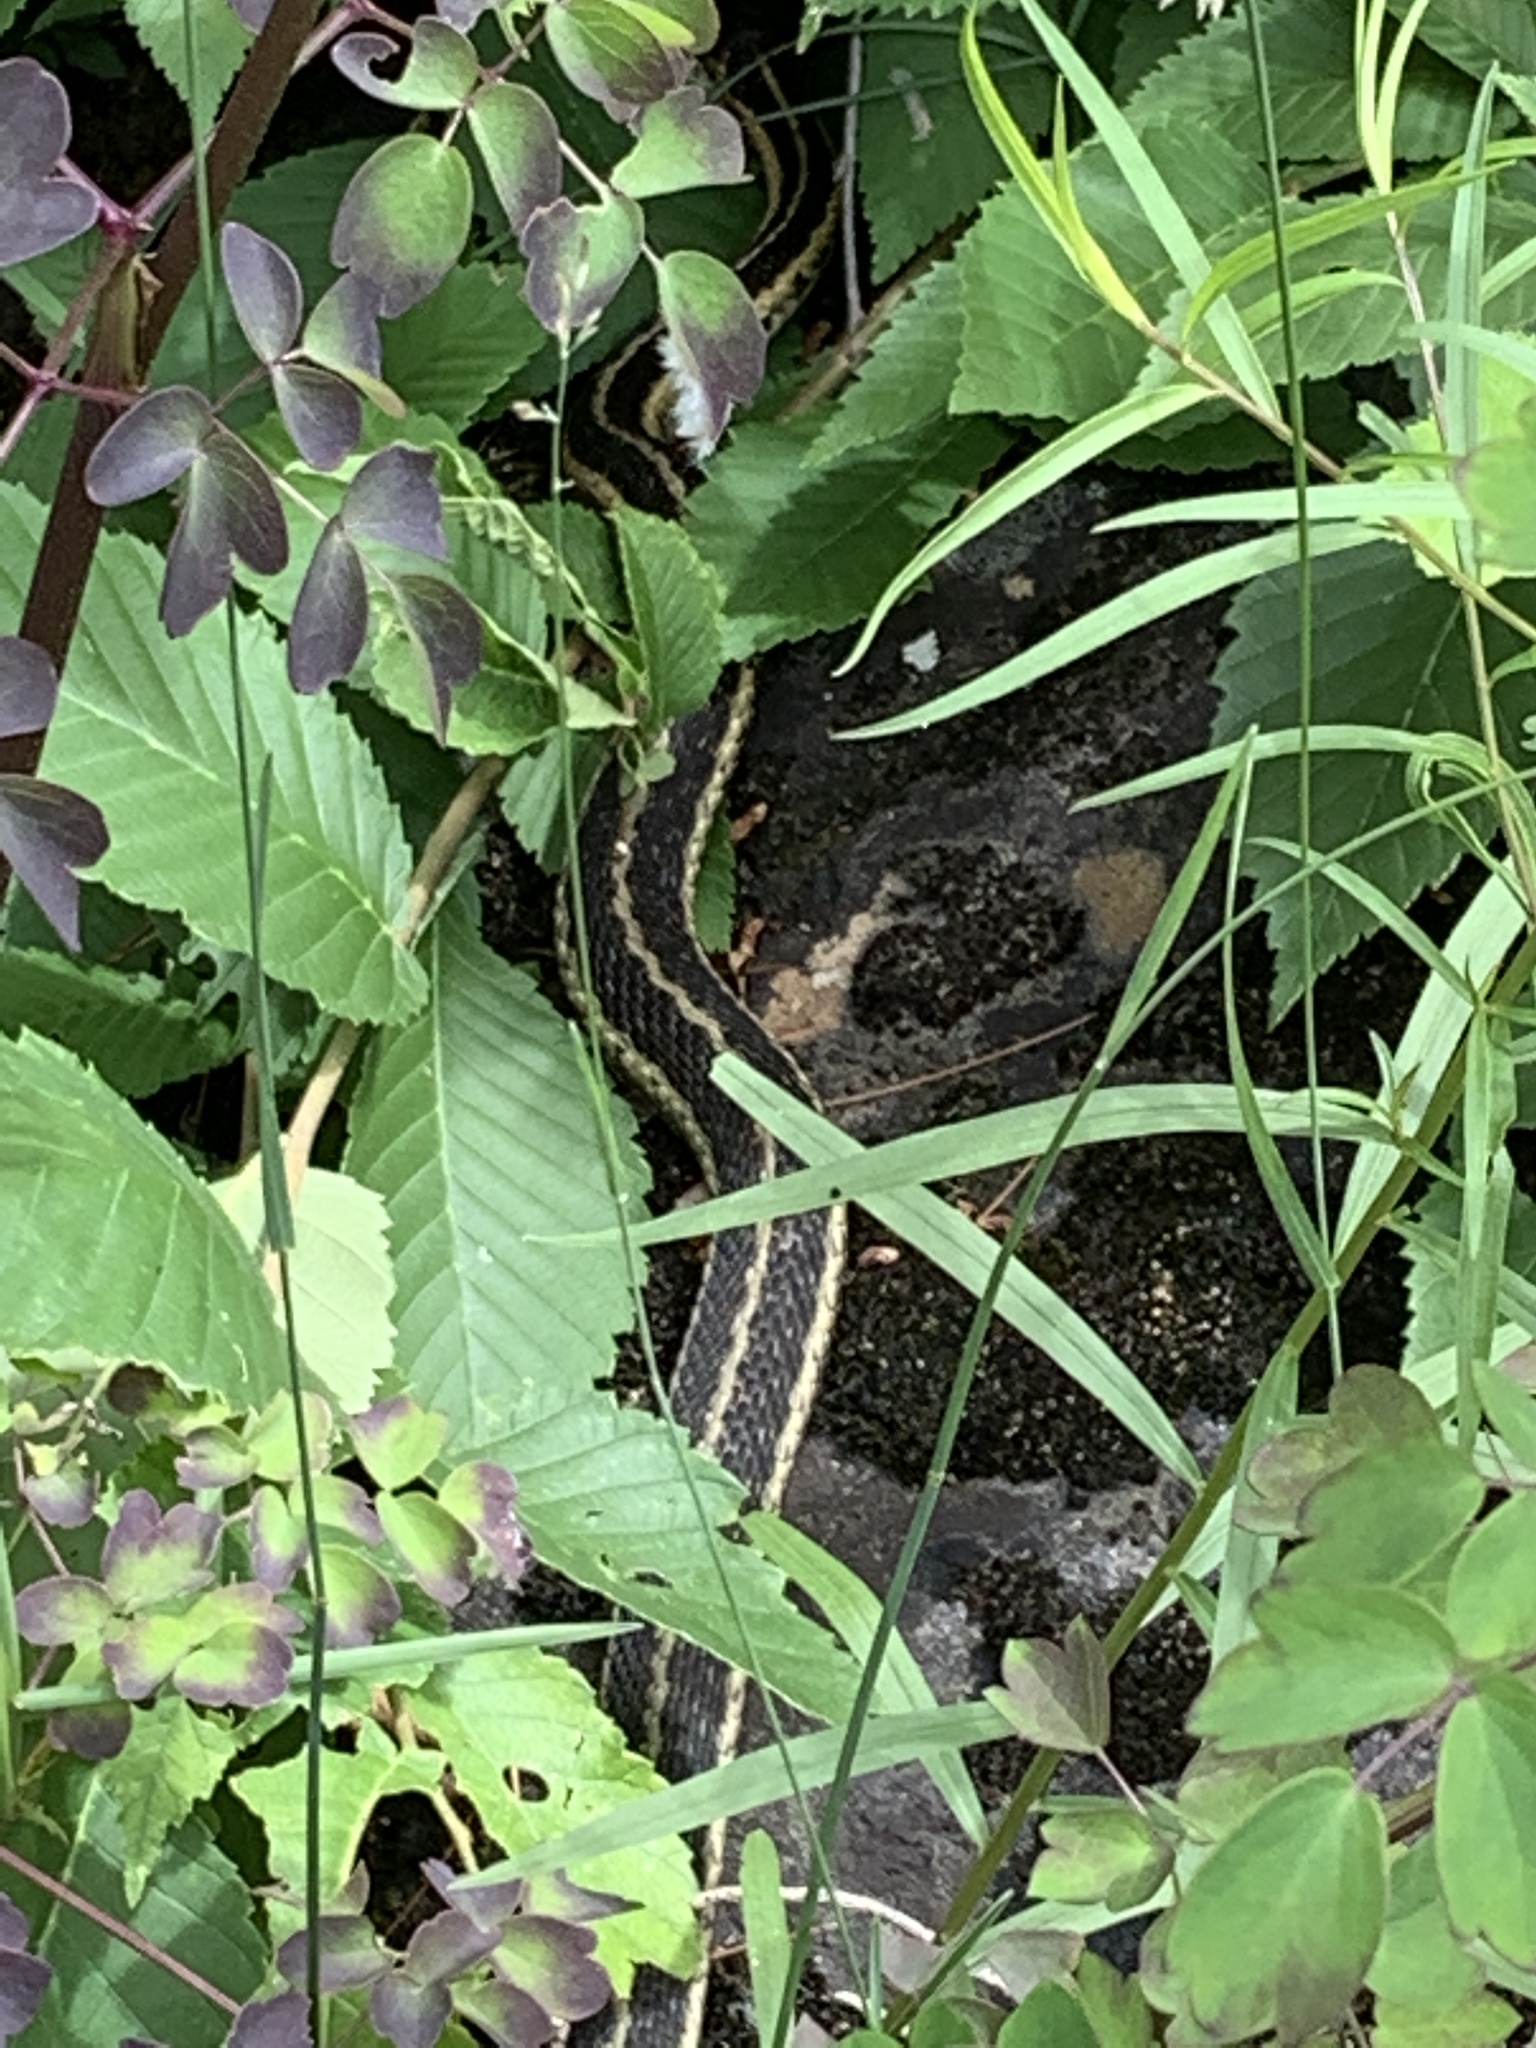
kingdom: Animalia
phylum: Chordata
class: Squamata
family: Colubridae
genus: Thamnophis
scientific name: Thamnophis sirtalis
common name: Common garter snake
